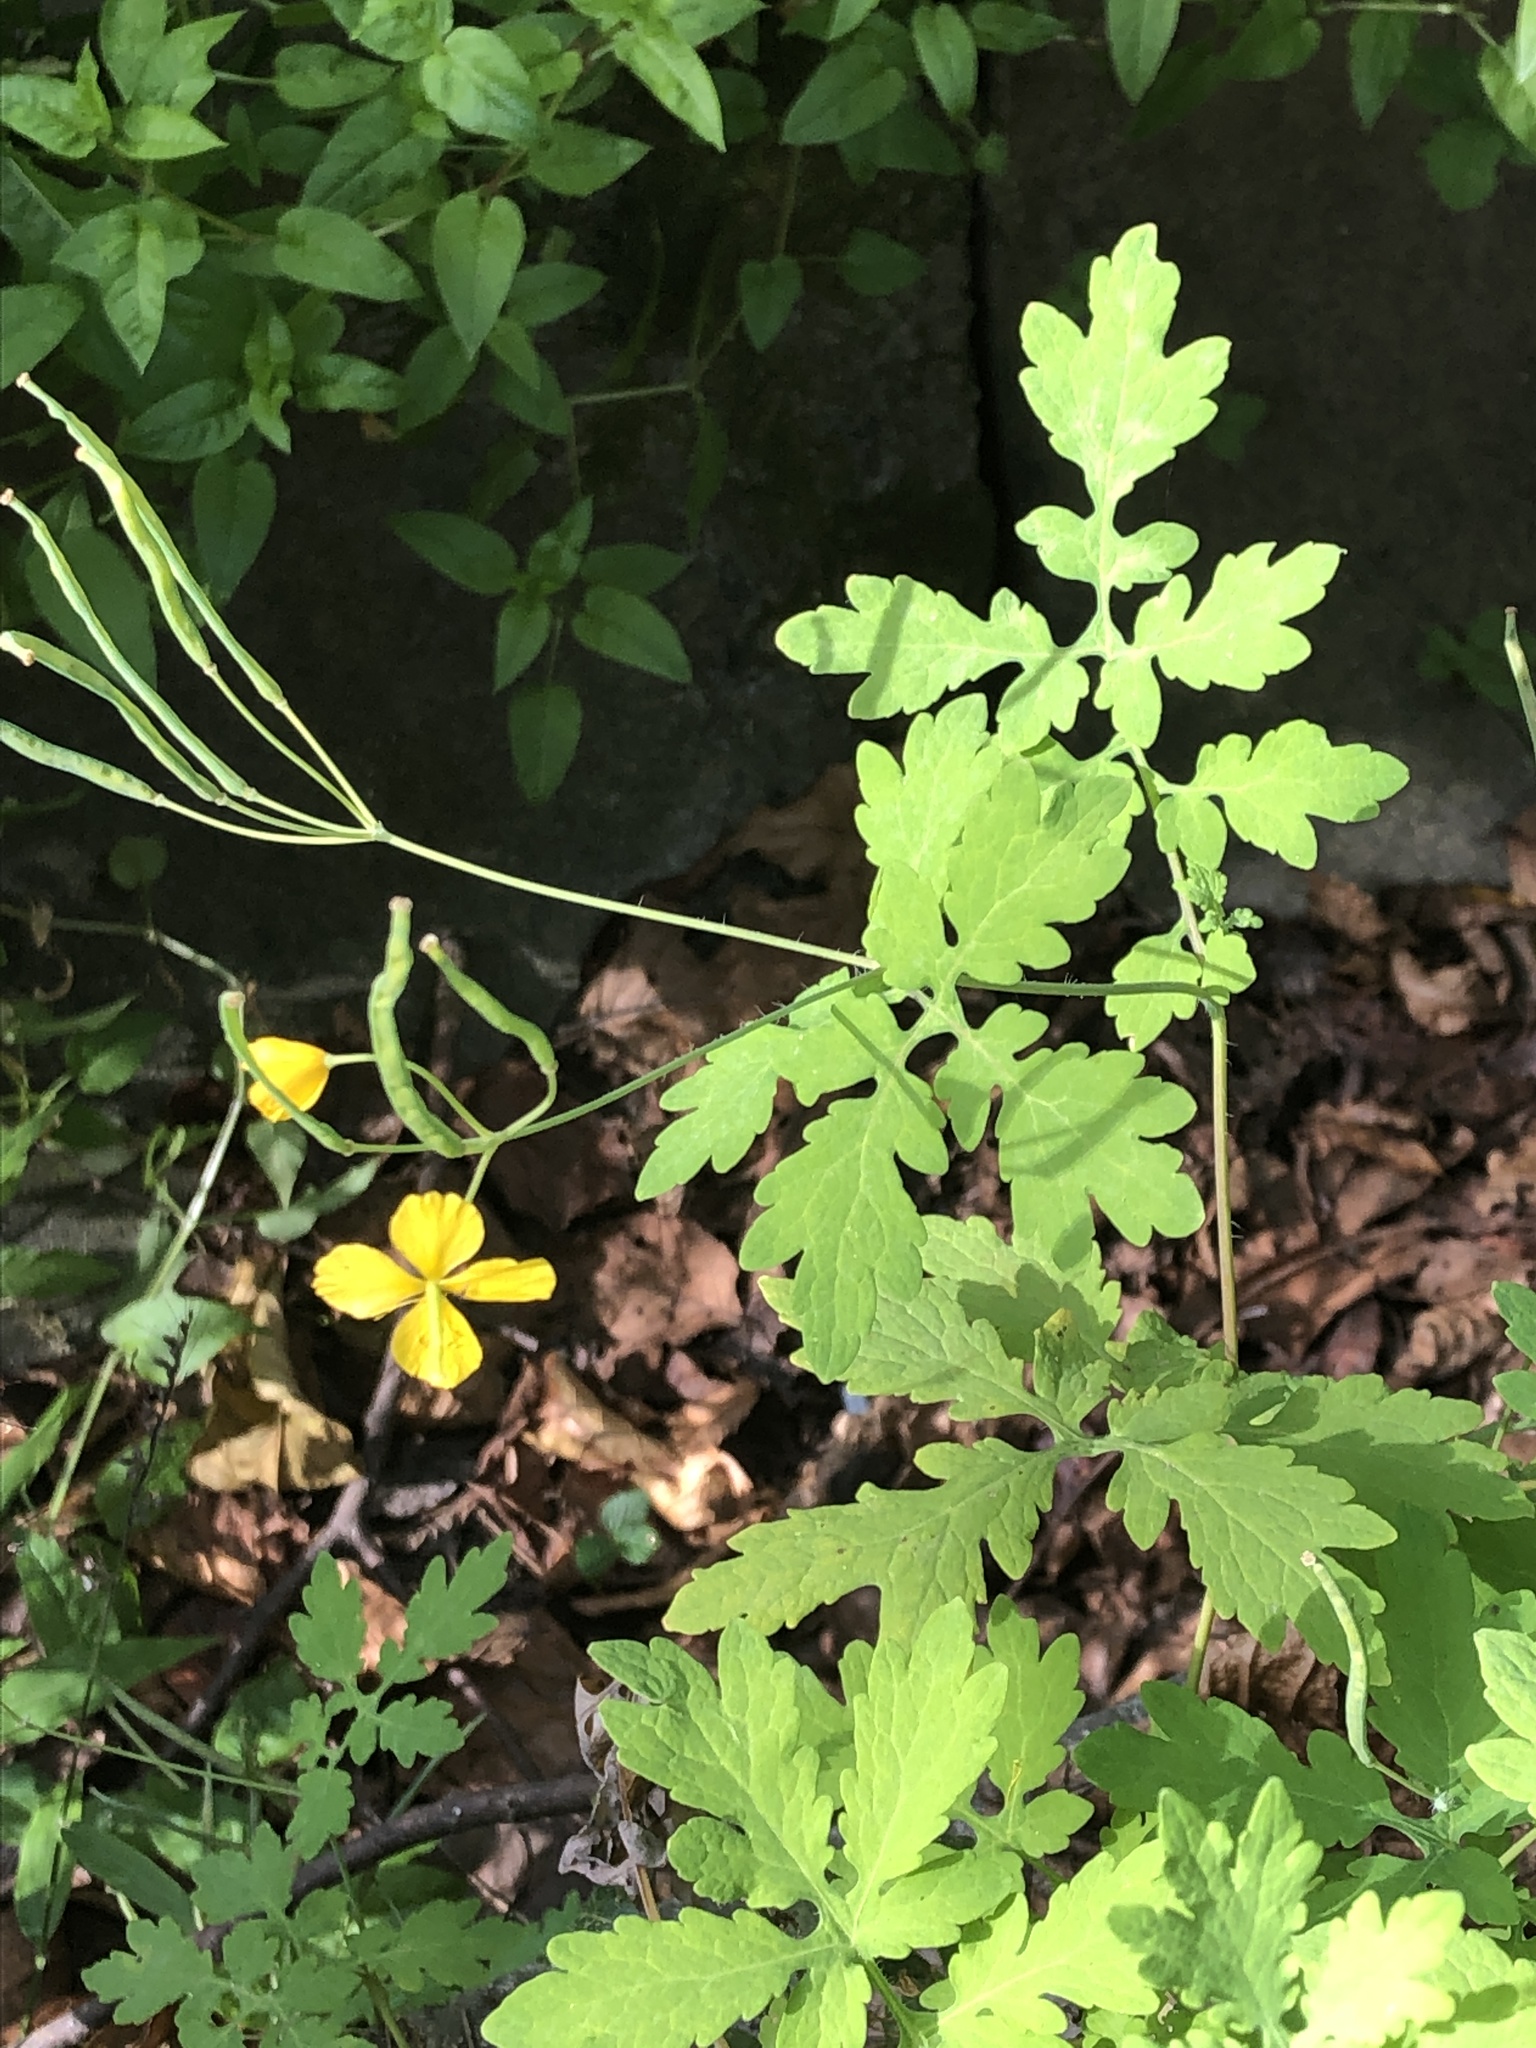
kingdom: Plantae
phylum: Tracheophyta
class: Magnoliopsida
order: Ranunculales
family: Papaveraceae
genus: Chelidonium
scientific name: Chelidonium majus
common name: Greater celandine
